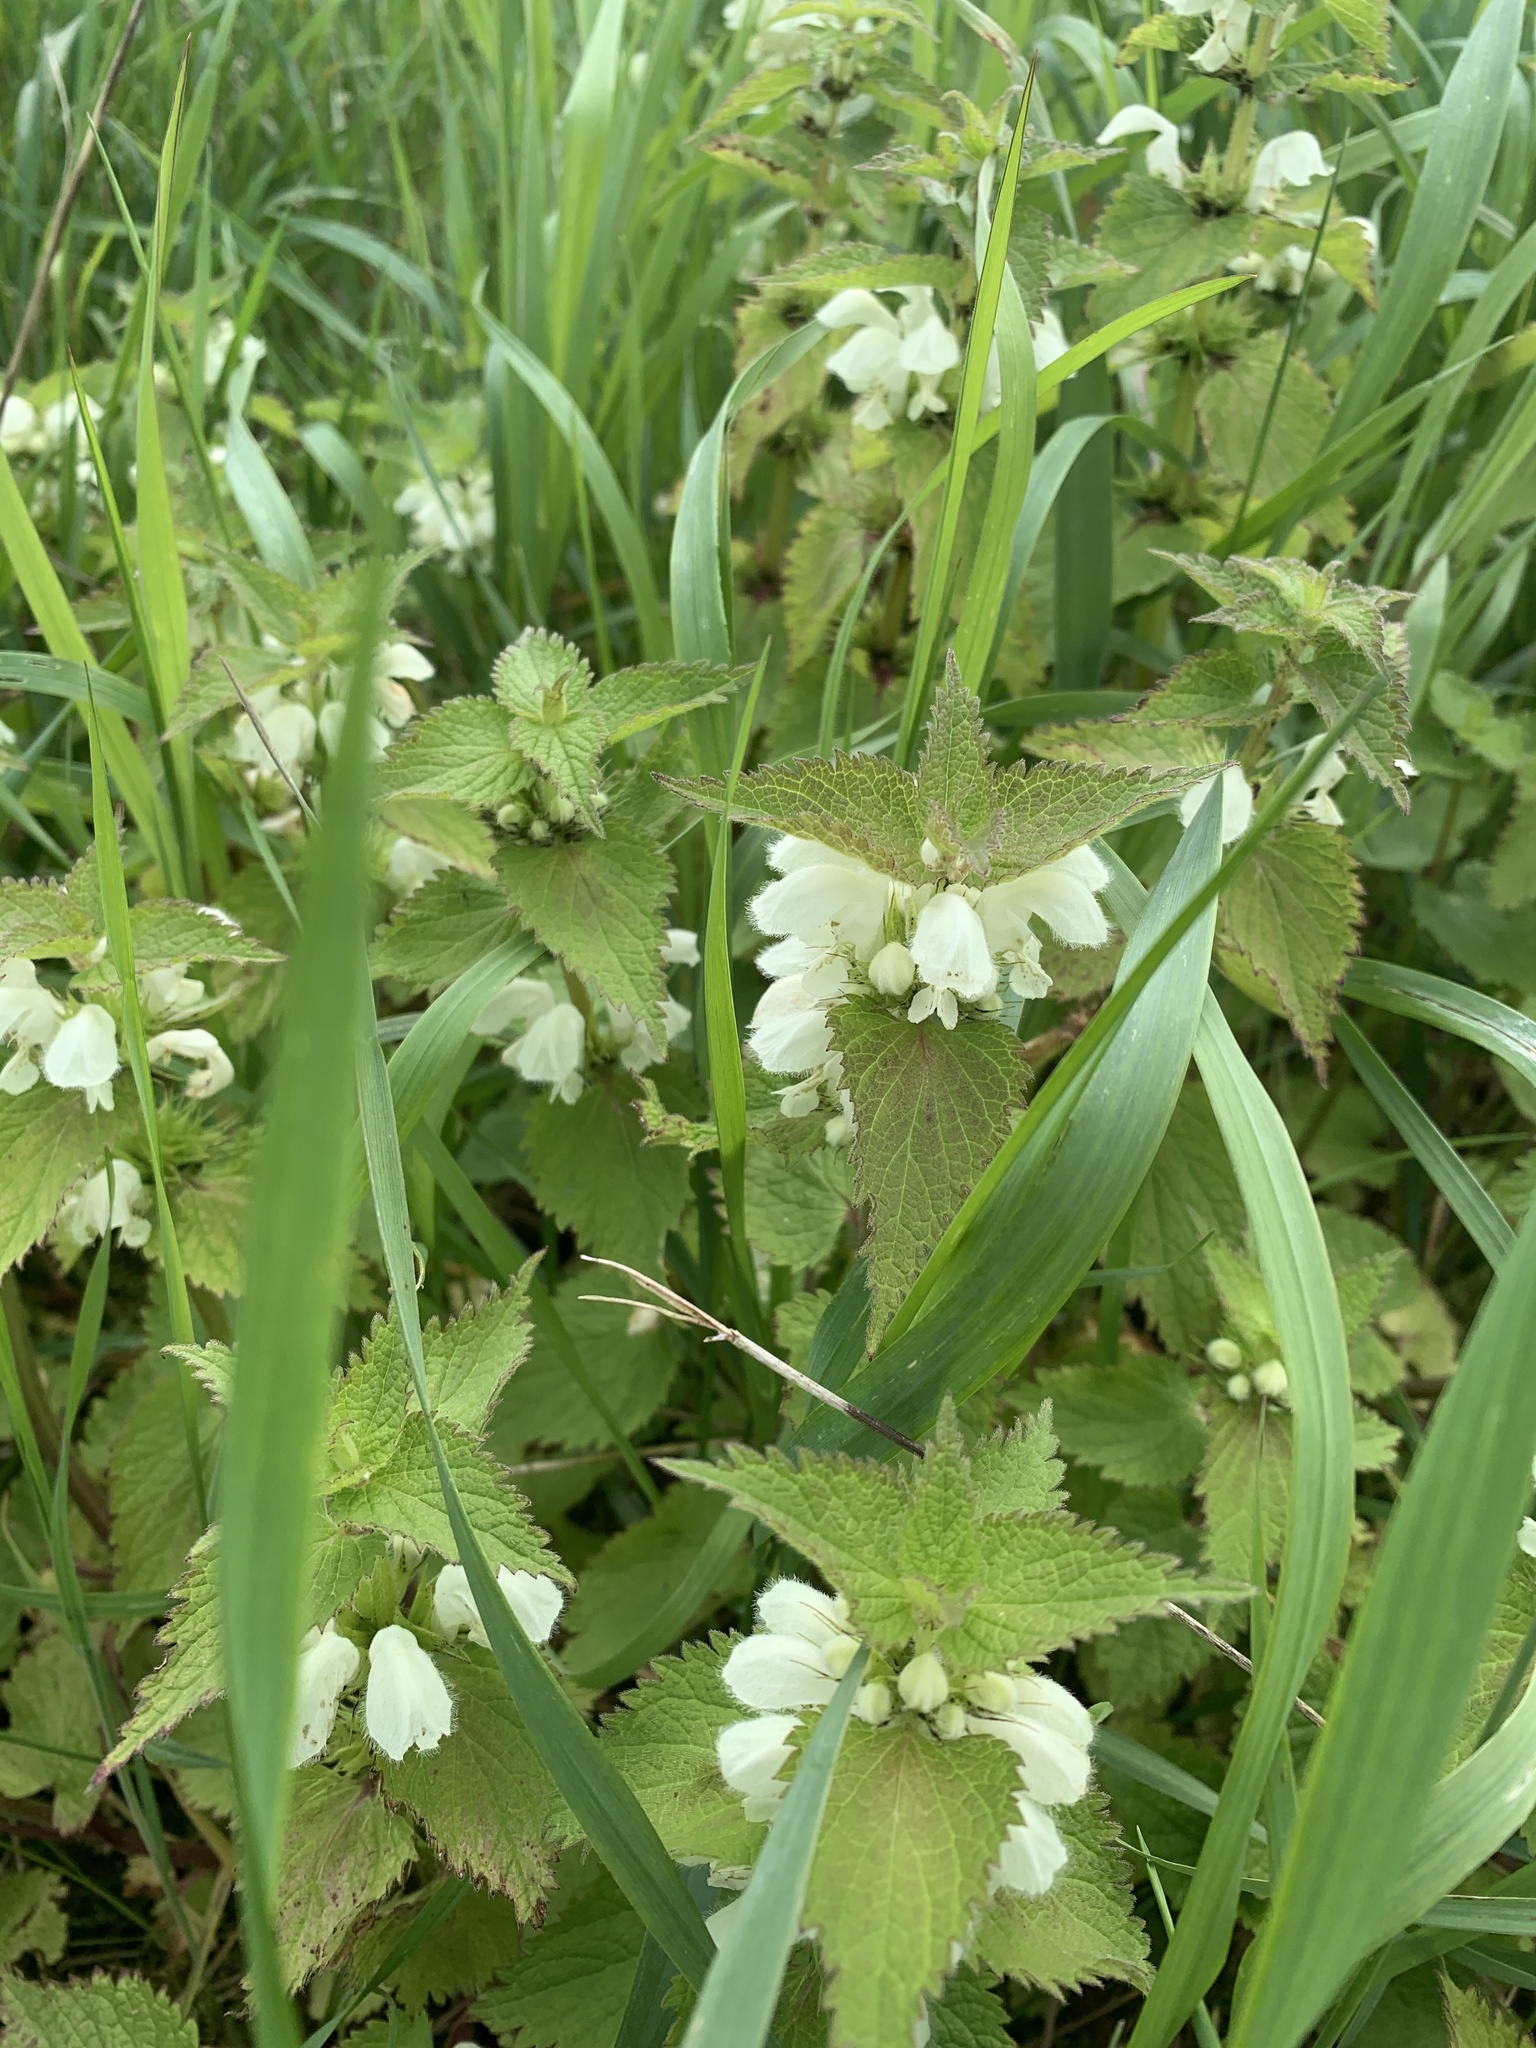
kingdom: Plantae
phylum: Tracheophyta
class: Magnoliopsida
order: Lamiales
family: Lamiaceae
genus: Lamium
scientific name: Lamium album
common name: White dead-nettle
